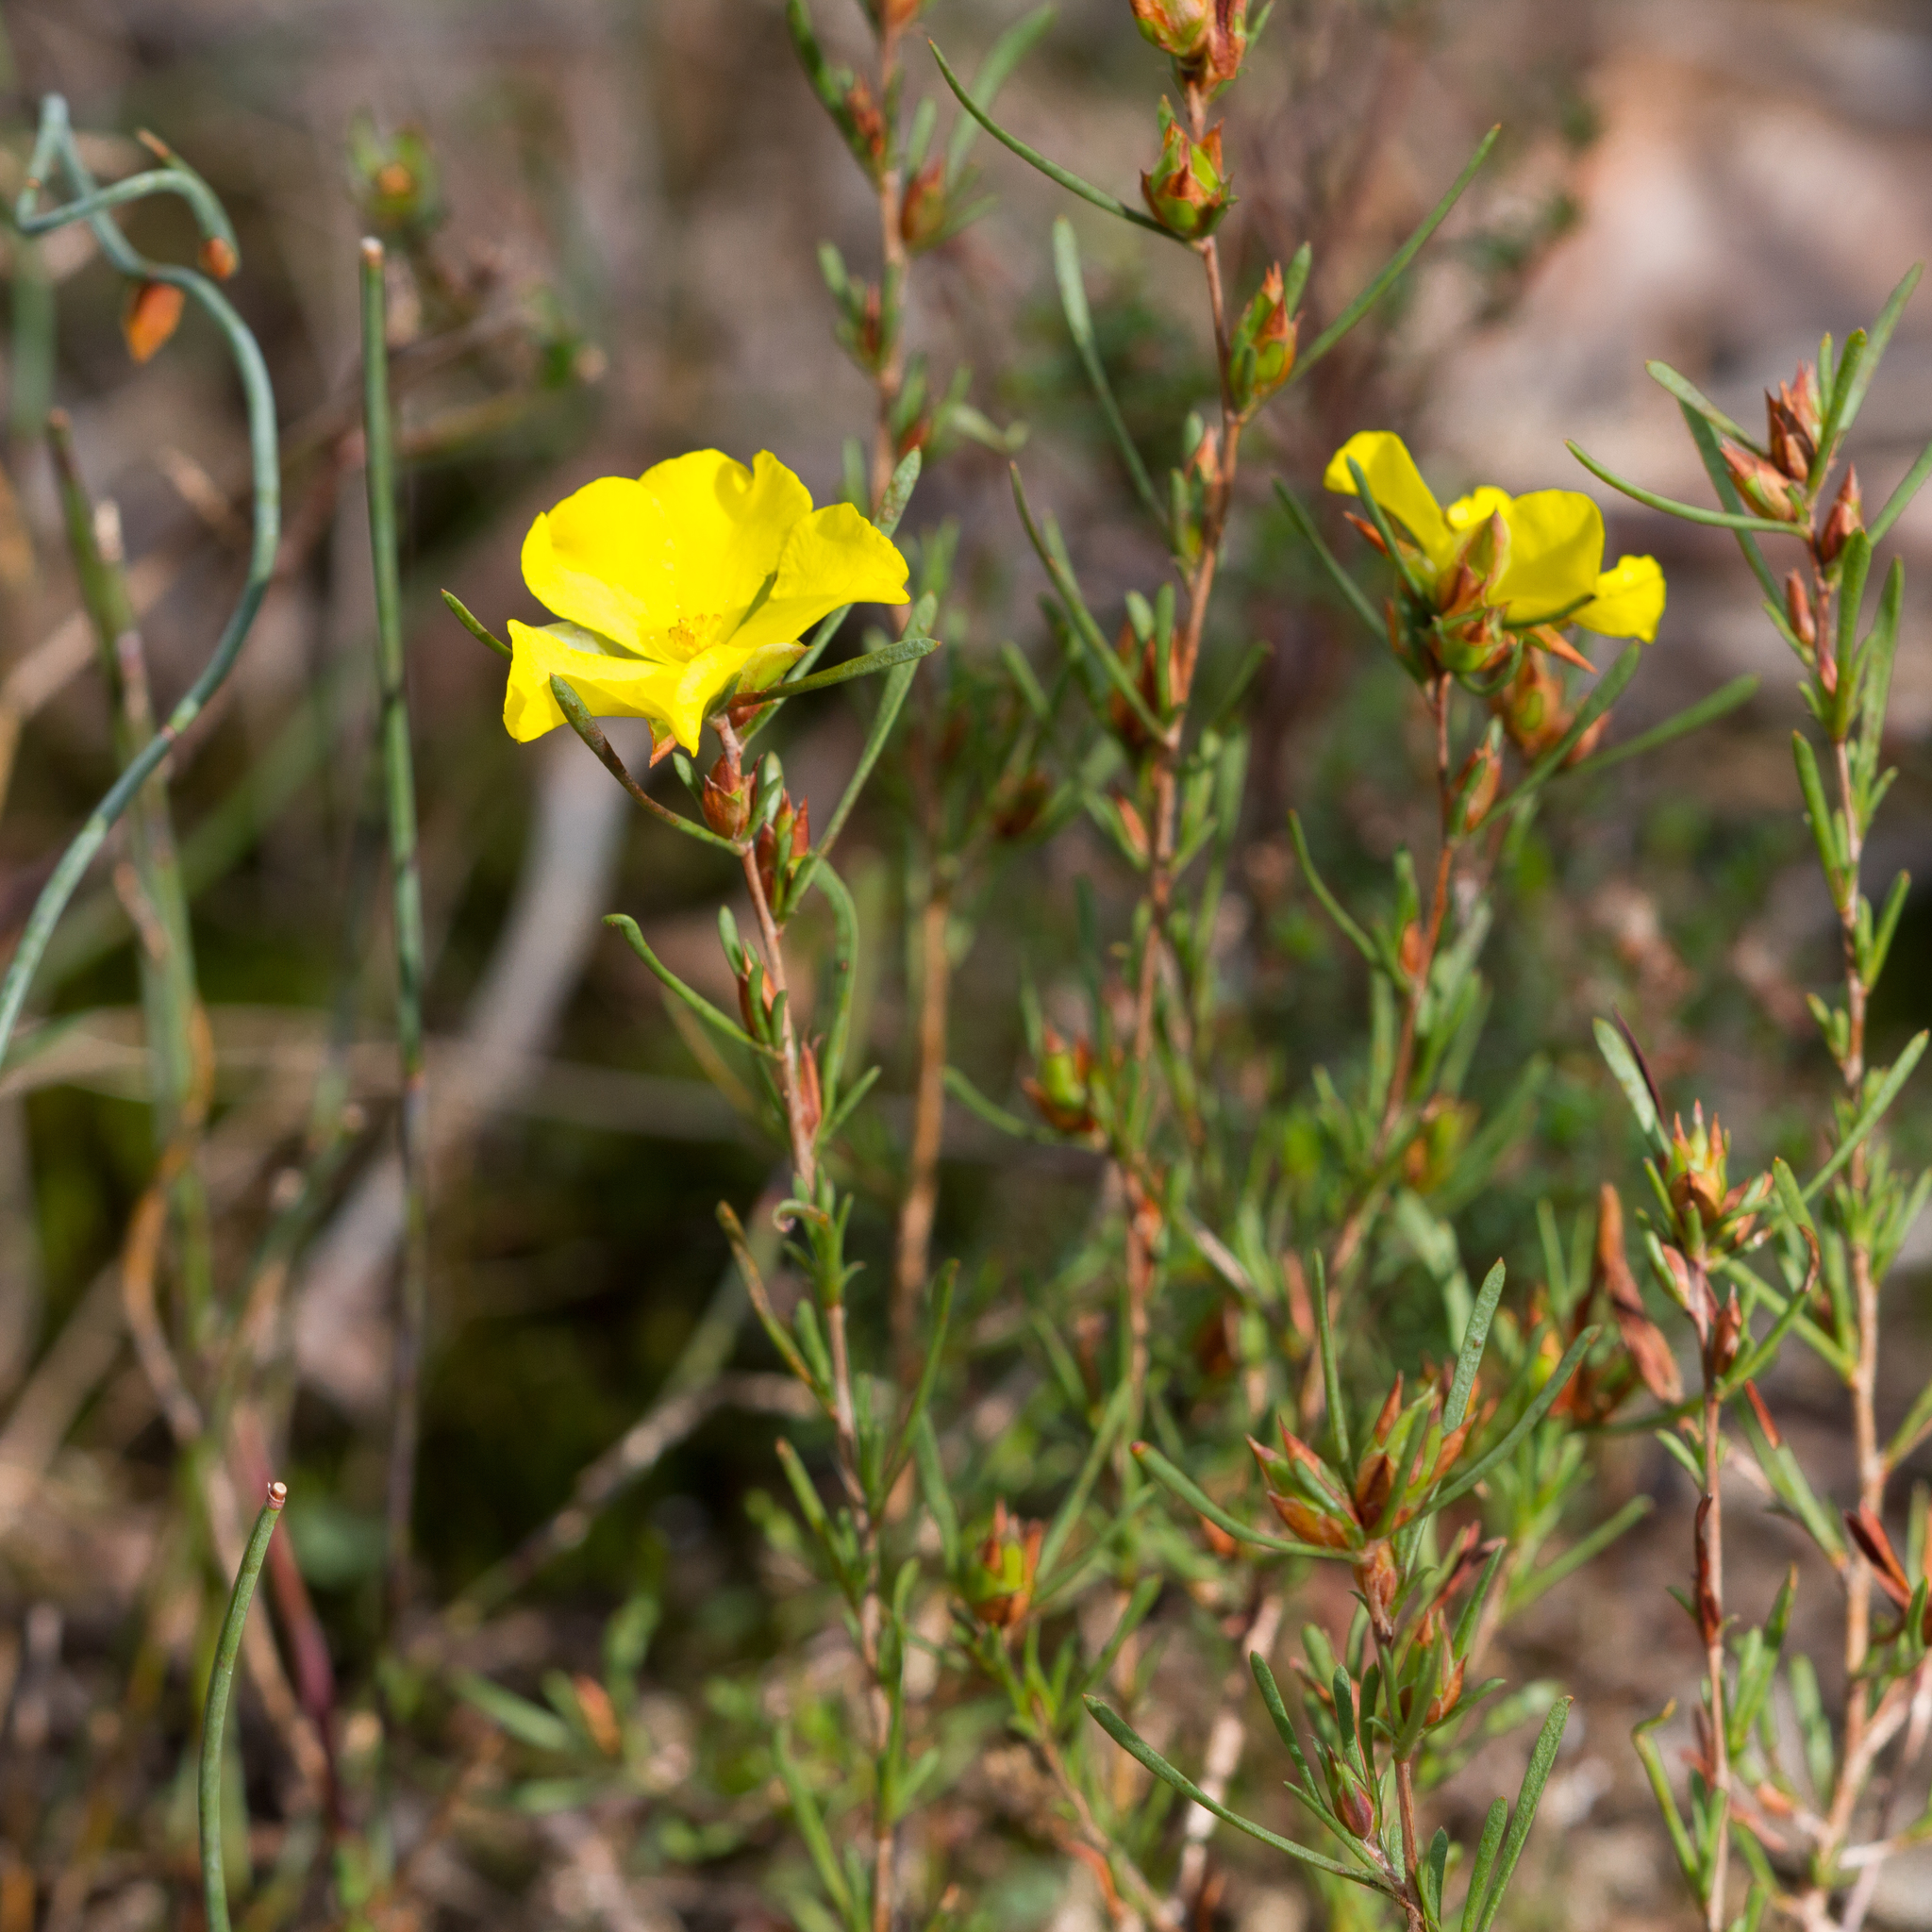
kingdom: Plantae
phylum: Tracheophyta
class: Magnoliopsida
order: Dilleniales
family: Dilleniaceae
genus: Hibbertia
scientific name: Hibbertia virgata
